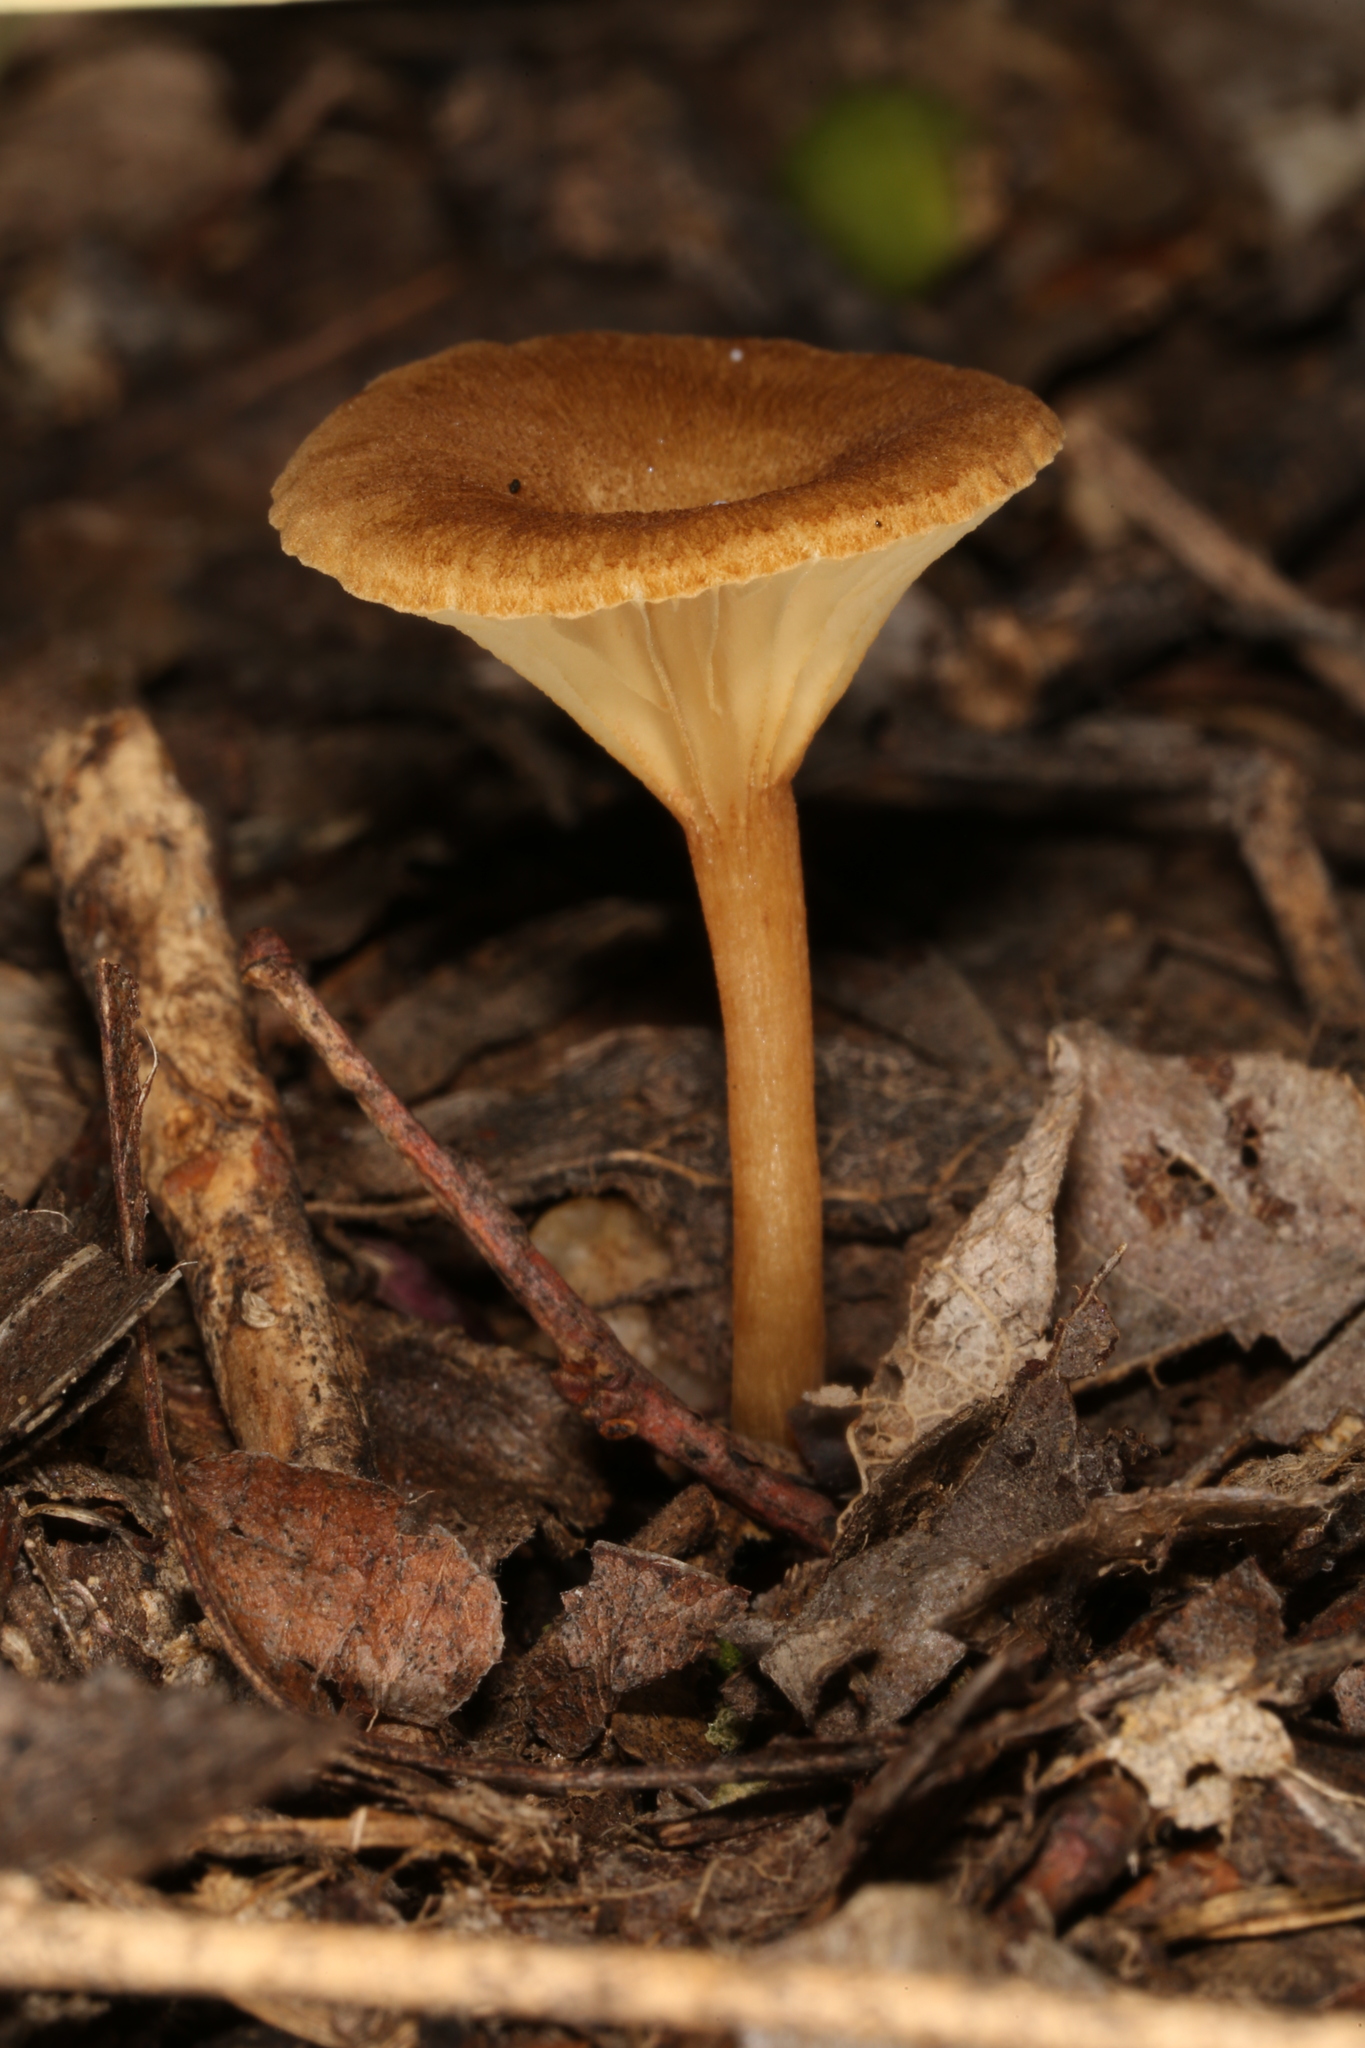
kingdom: Fungi
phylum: Basidiomycota
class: Agaricomycetes
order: Agaricales
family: Crepidotaceae
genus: Crepidotus
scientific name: Crepidotus subfulviceps
